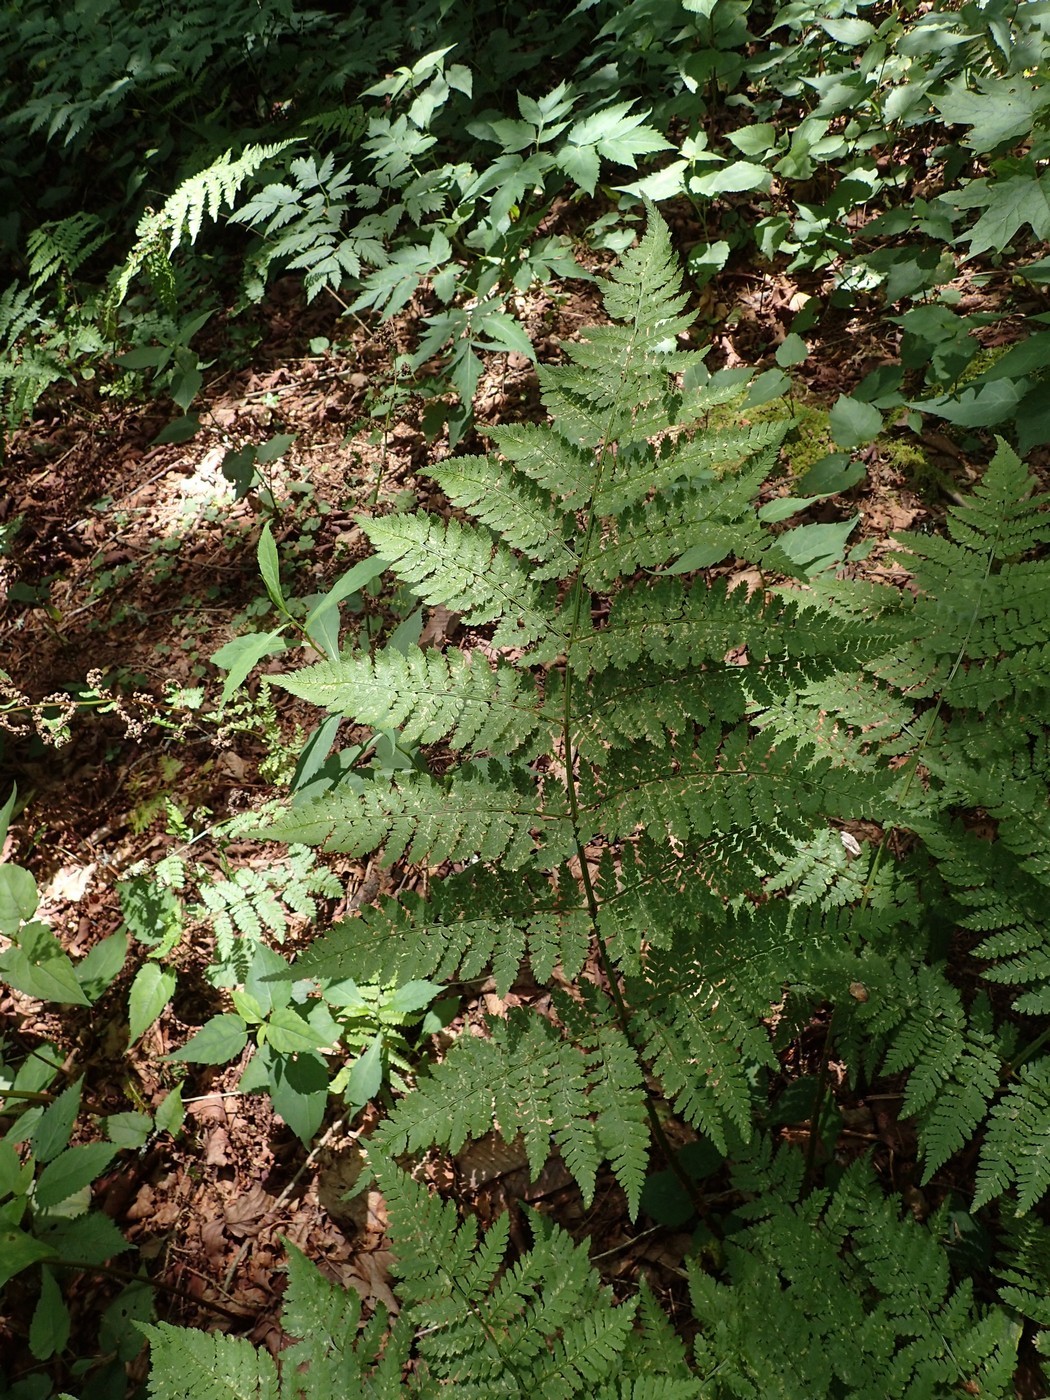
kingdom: Plantae
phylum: Tracheophyta
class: Polypodiopsida
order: Polypodiales
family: Dryopteridaceae
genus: Dryopteris
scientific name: Dryopteris campyloptera
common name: Mountain wood fern
